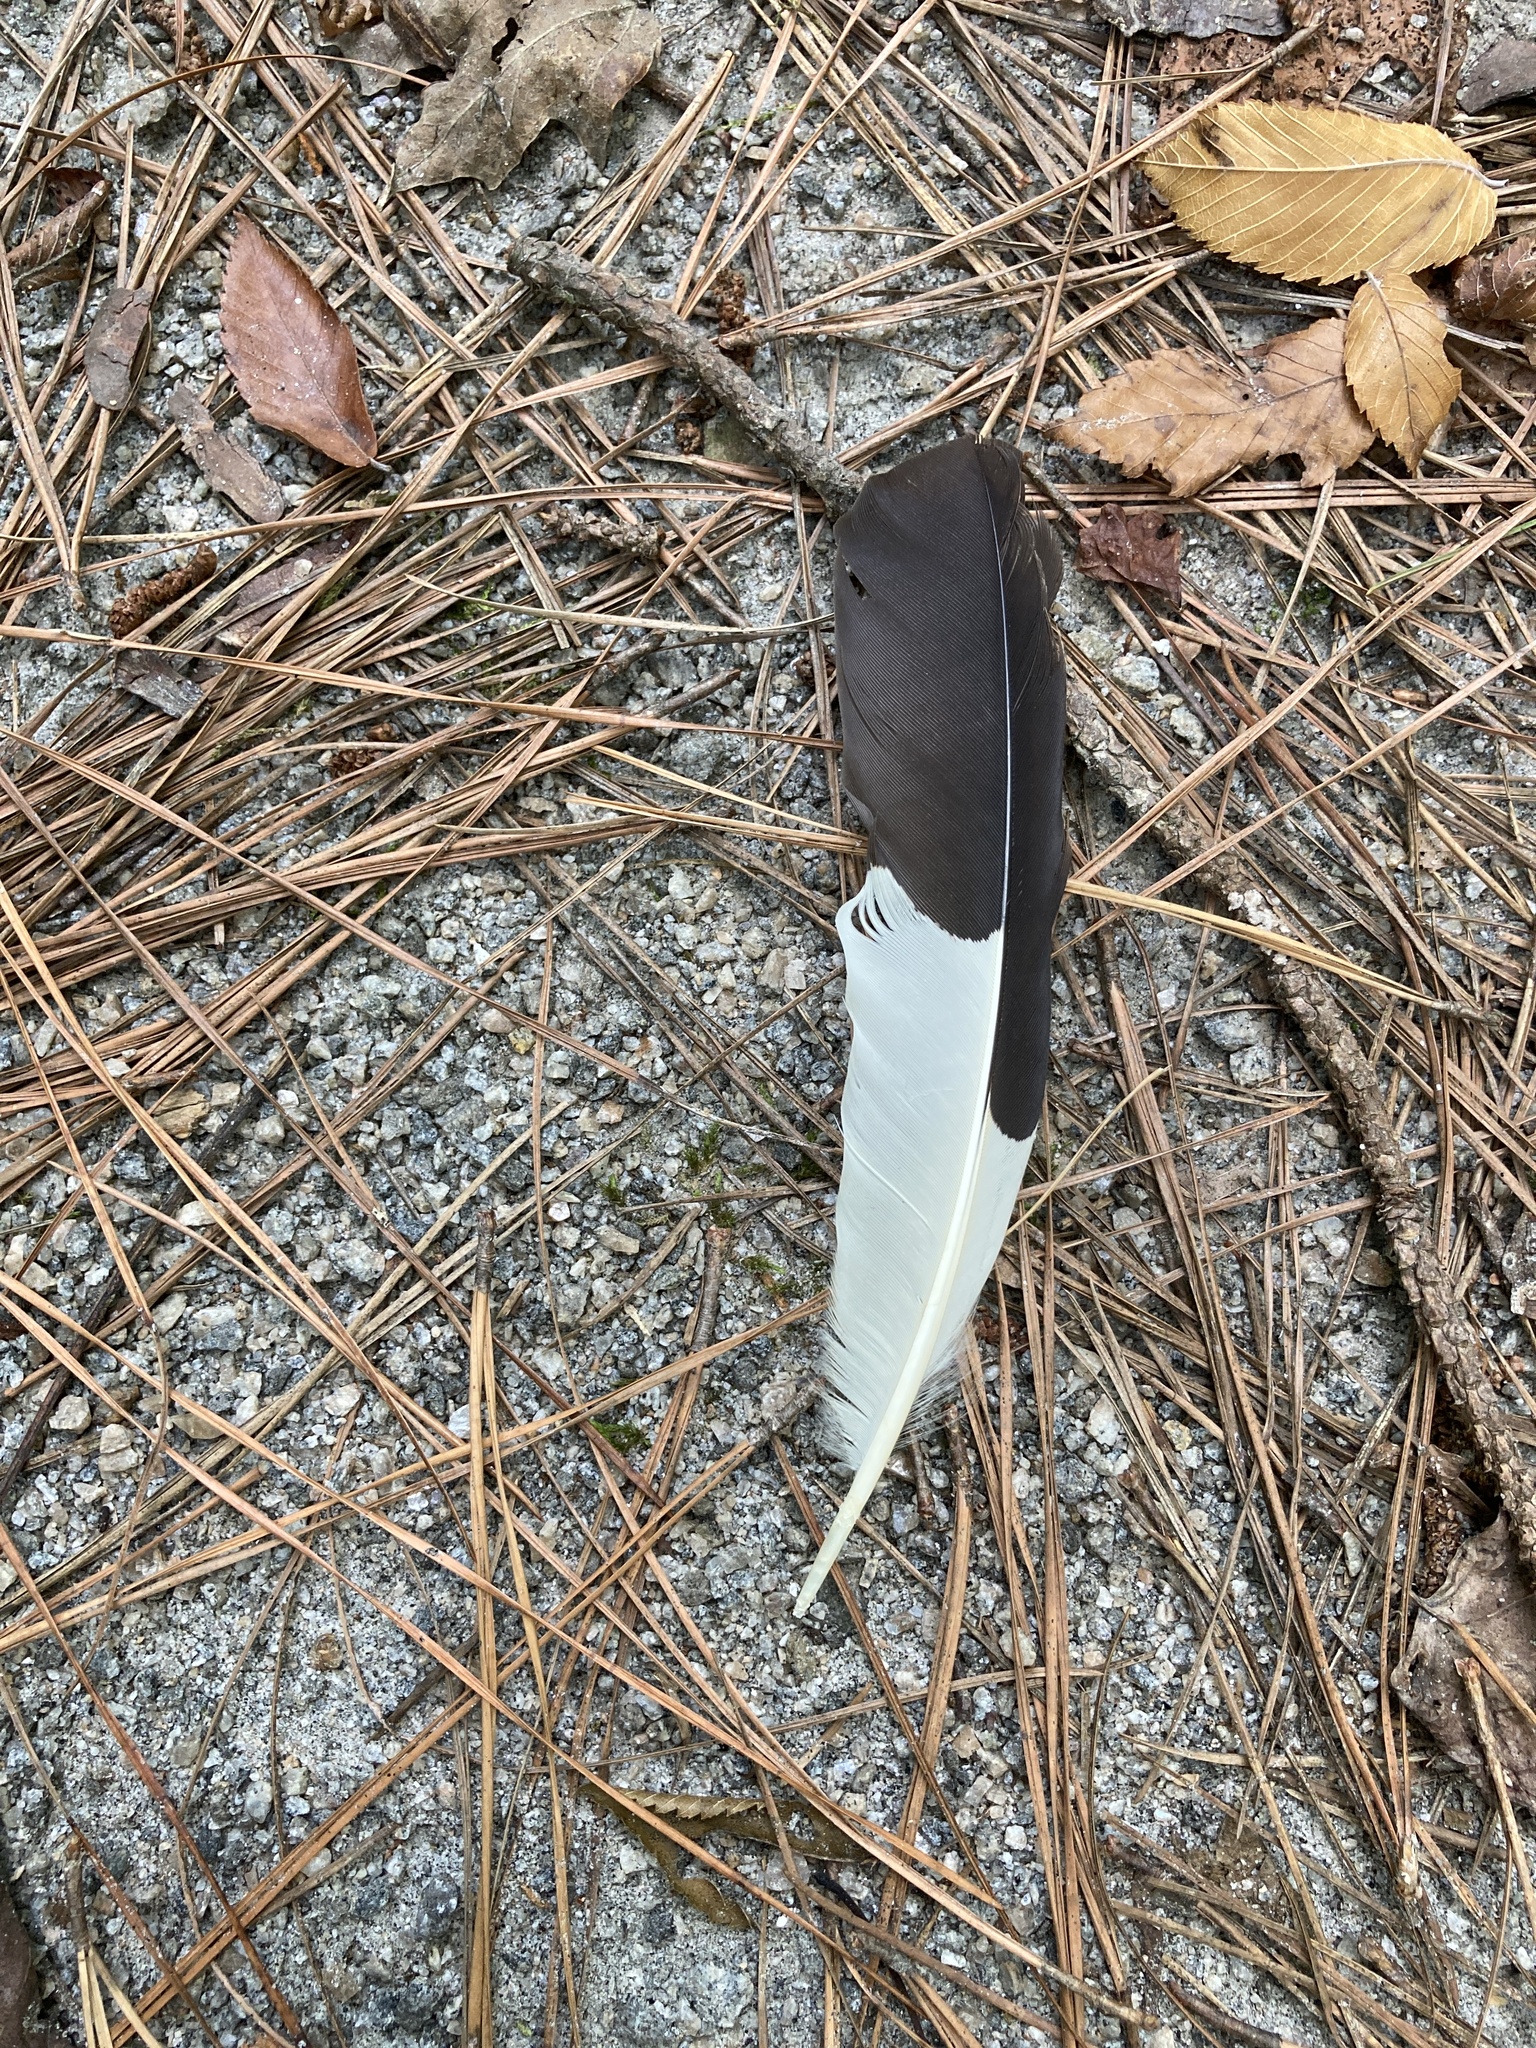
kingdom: Animalia
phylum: Chordata
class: Aves
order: Piciformes
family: Picidae
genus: Dryocopus
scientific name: Dryocopus pileatus
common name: Pileated woodpecker
